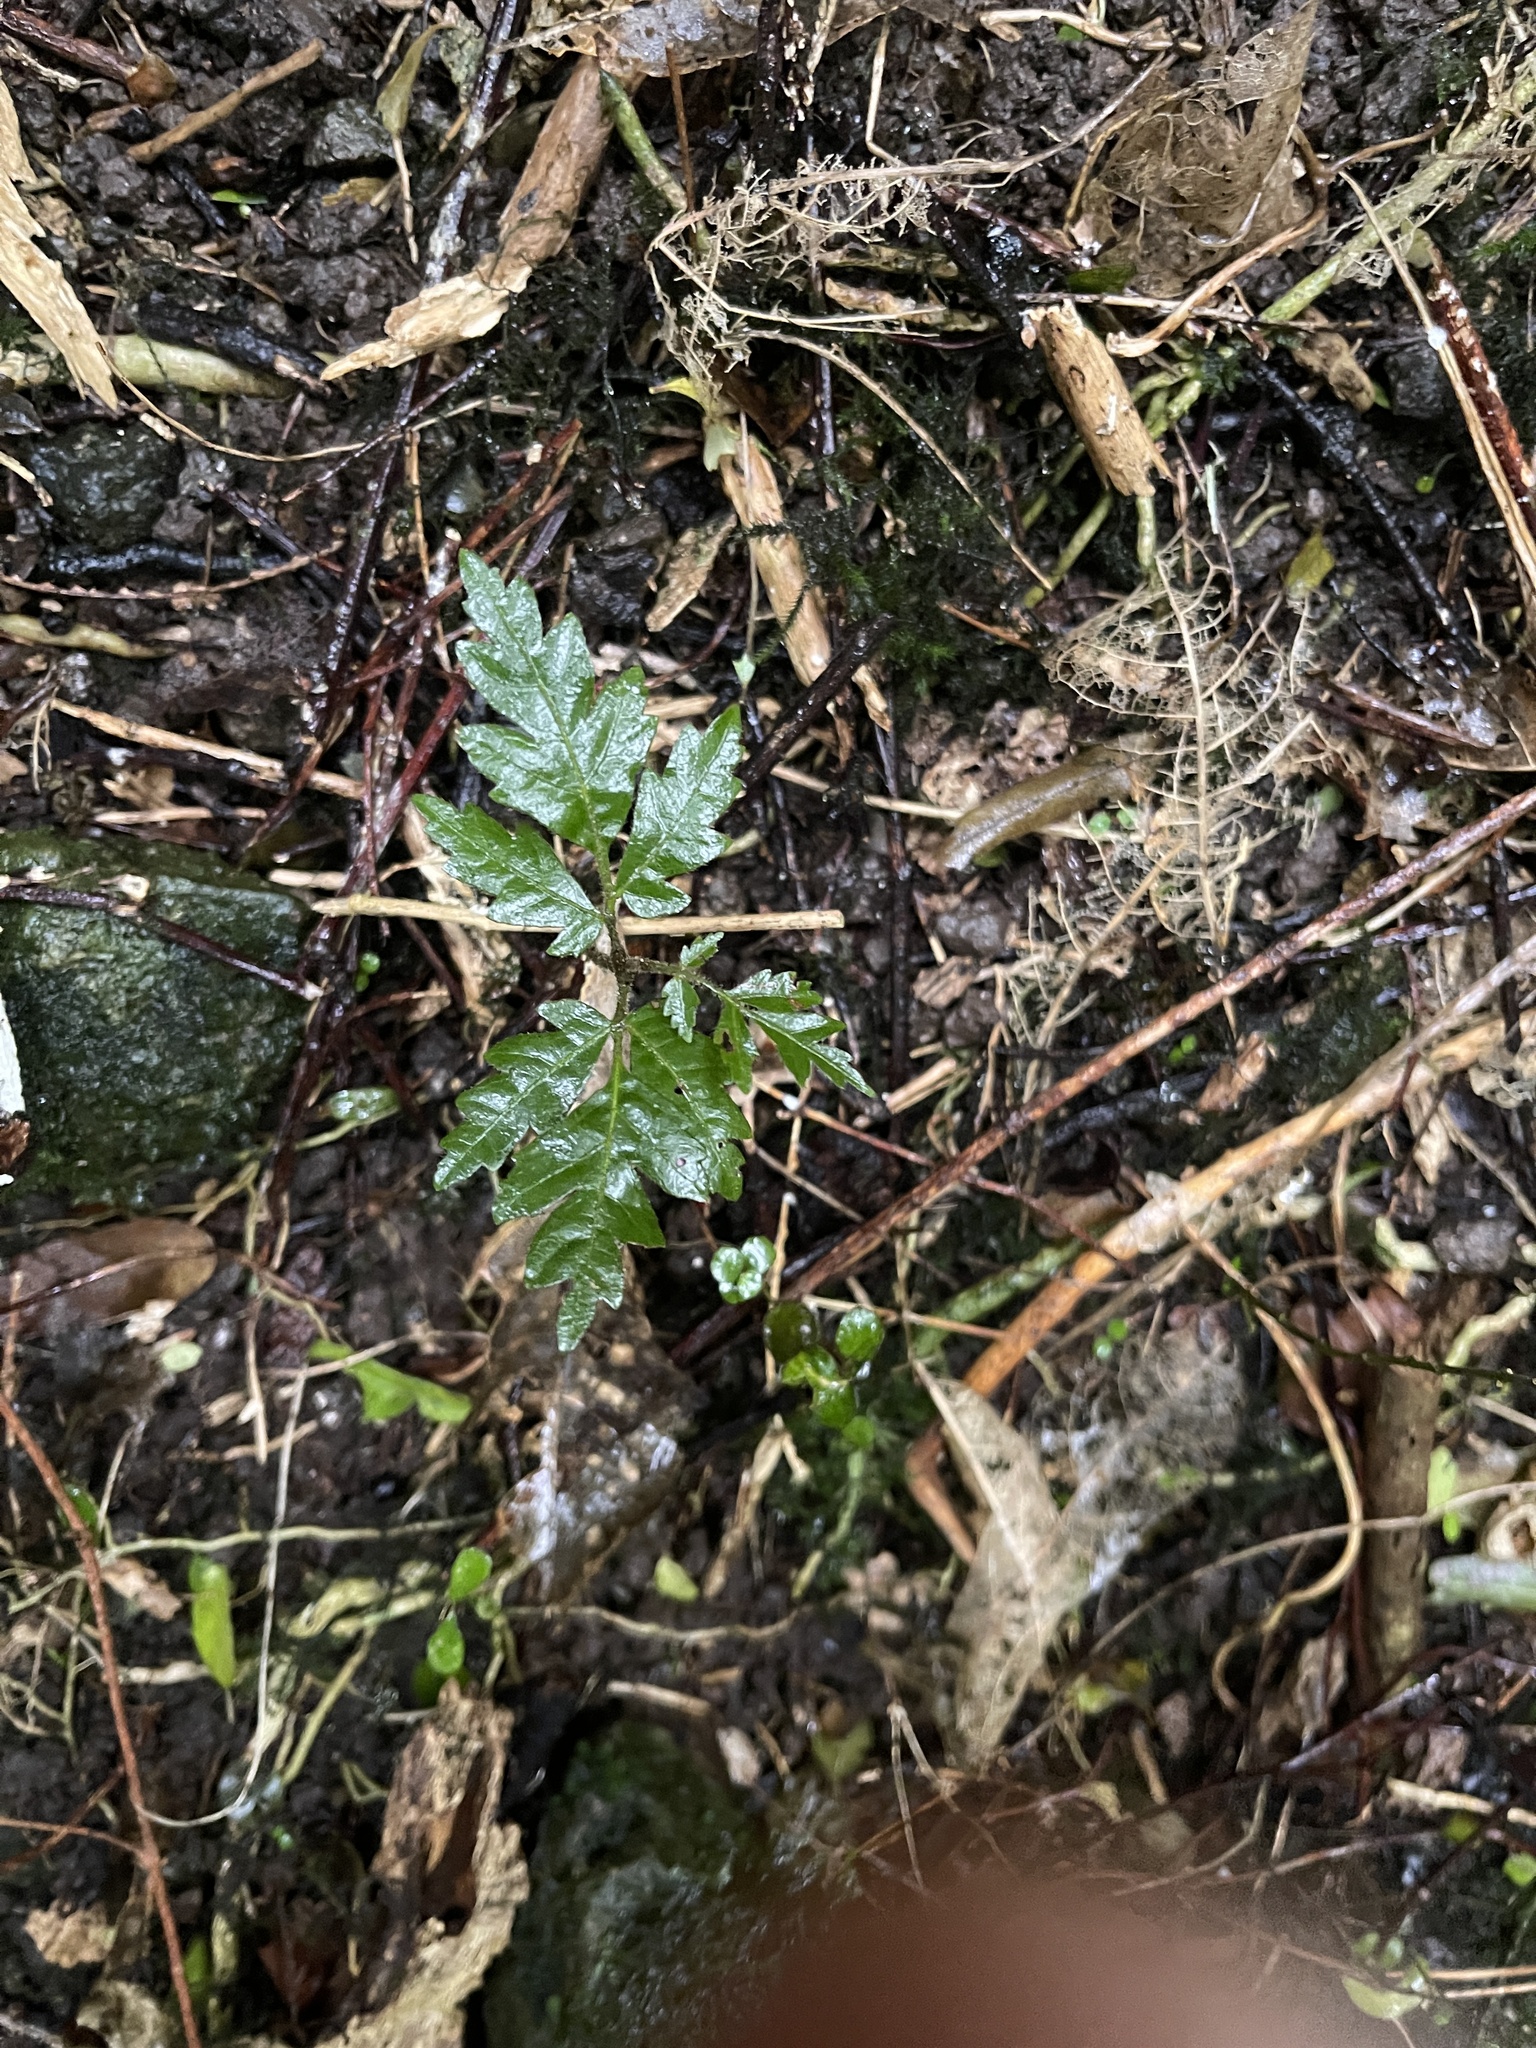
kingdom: Plantae
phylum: Tracheophyta
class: Magnoliopsida
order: Sapindales
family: Sapindaceae
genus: Alectryon
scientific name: Alectryon excelsus
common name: Three kings titoki
